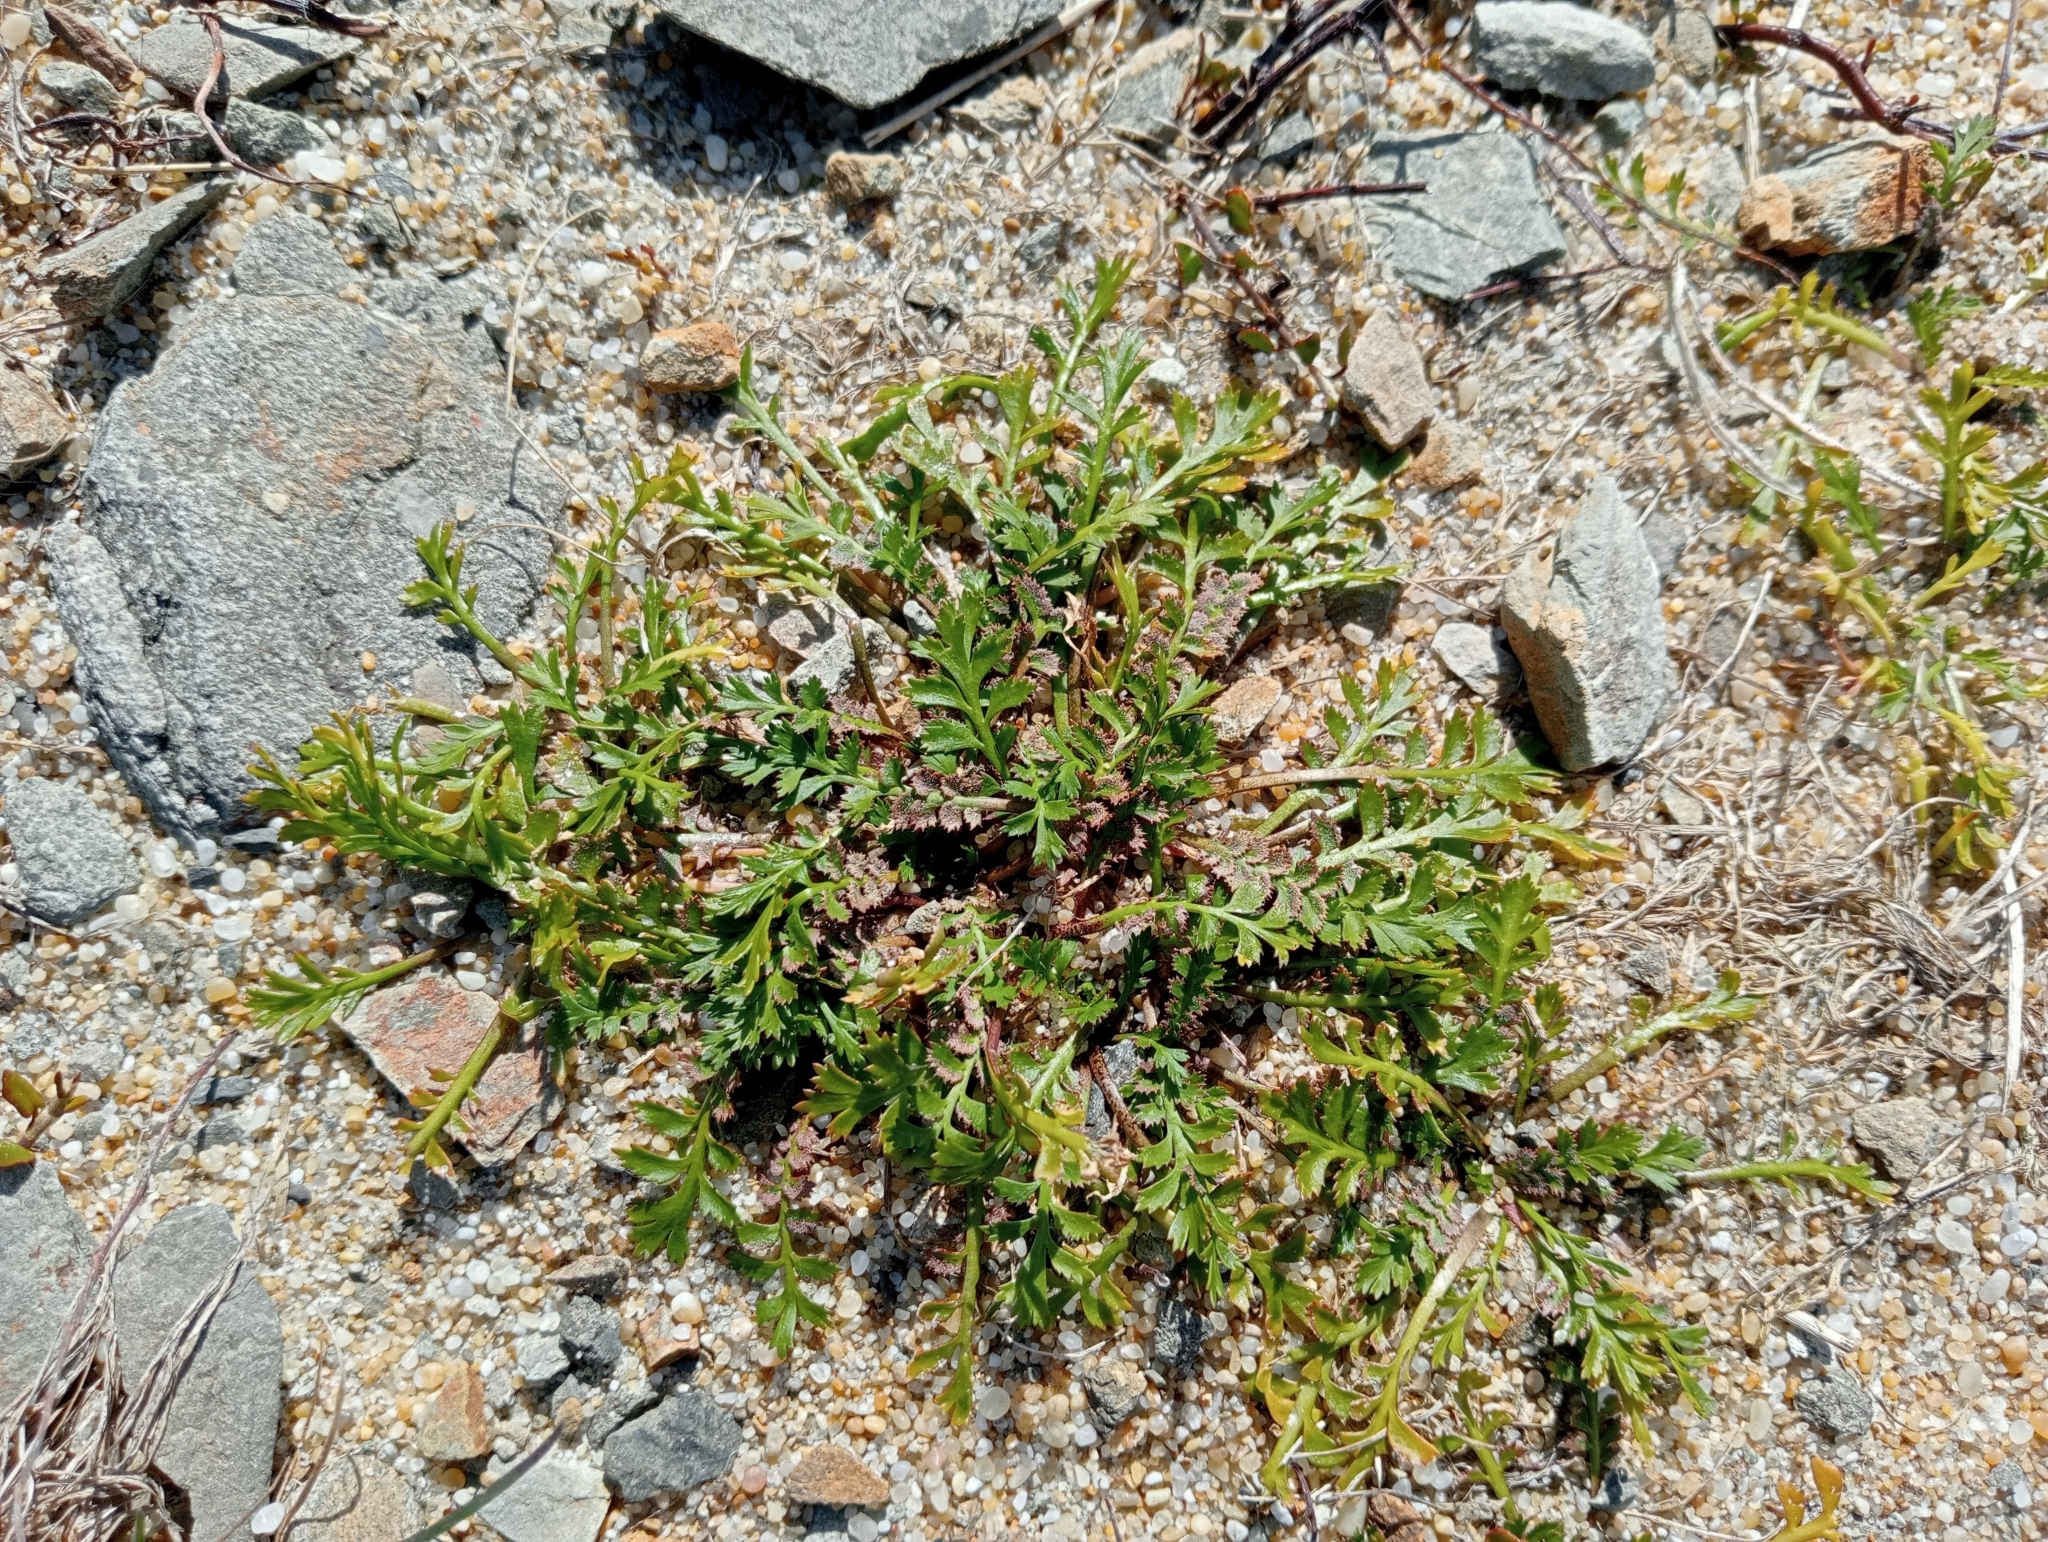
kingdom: Plantae
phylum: Tracheophyta
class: Magnoliopsida
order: Brassicales
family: Brassicaceae
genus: Lepidium
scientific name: Lepidium tenuicaule
